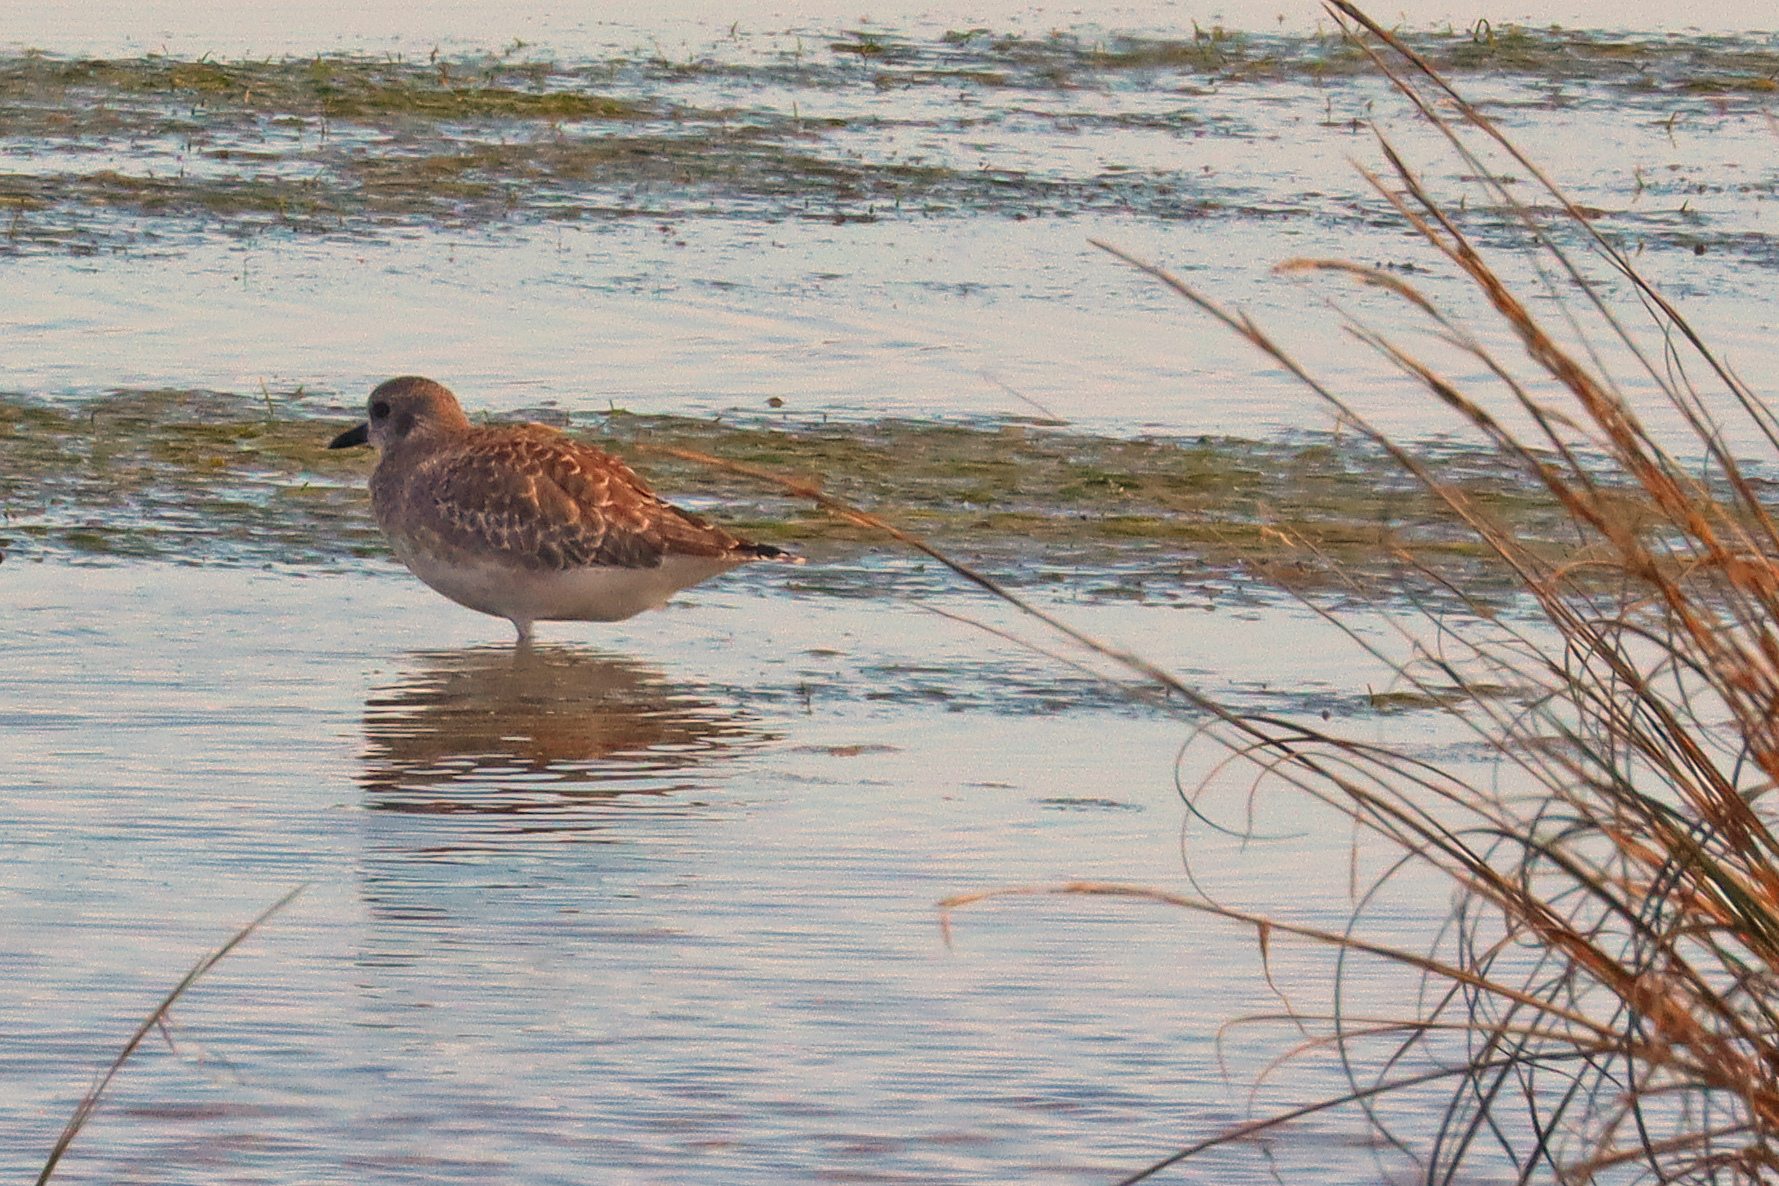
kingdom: Animalia
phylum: Chordata
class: Aves
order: Charadriiformes
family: Charadriidae
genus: Pluvialis
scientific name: Pluvialis squatarola
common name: Grey plover
